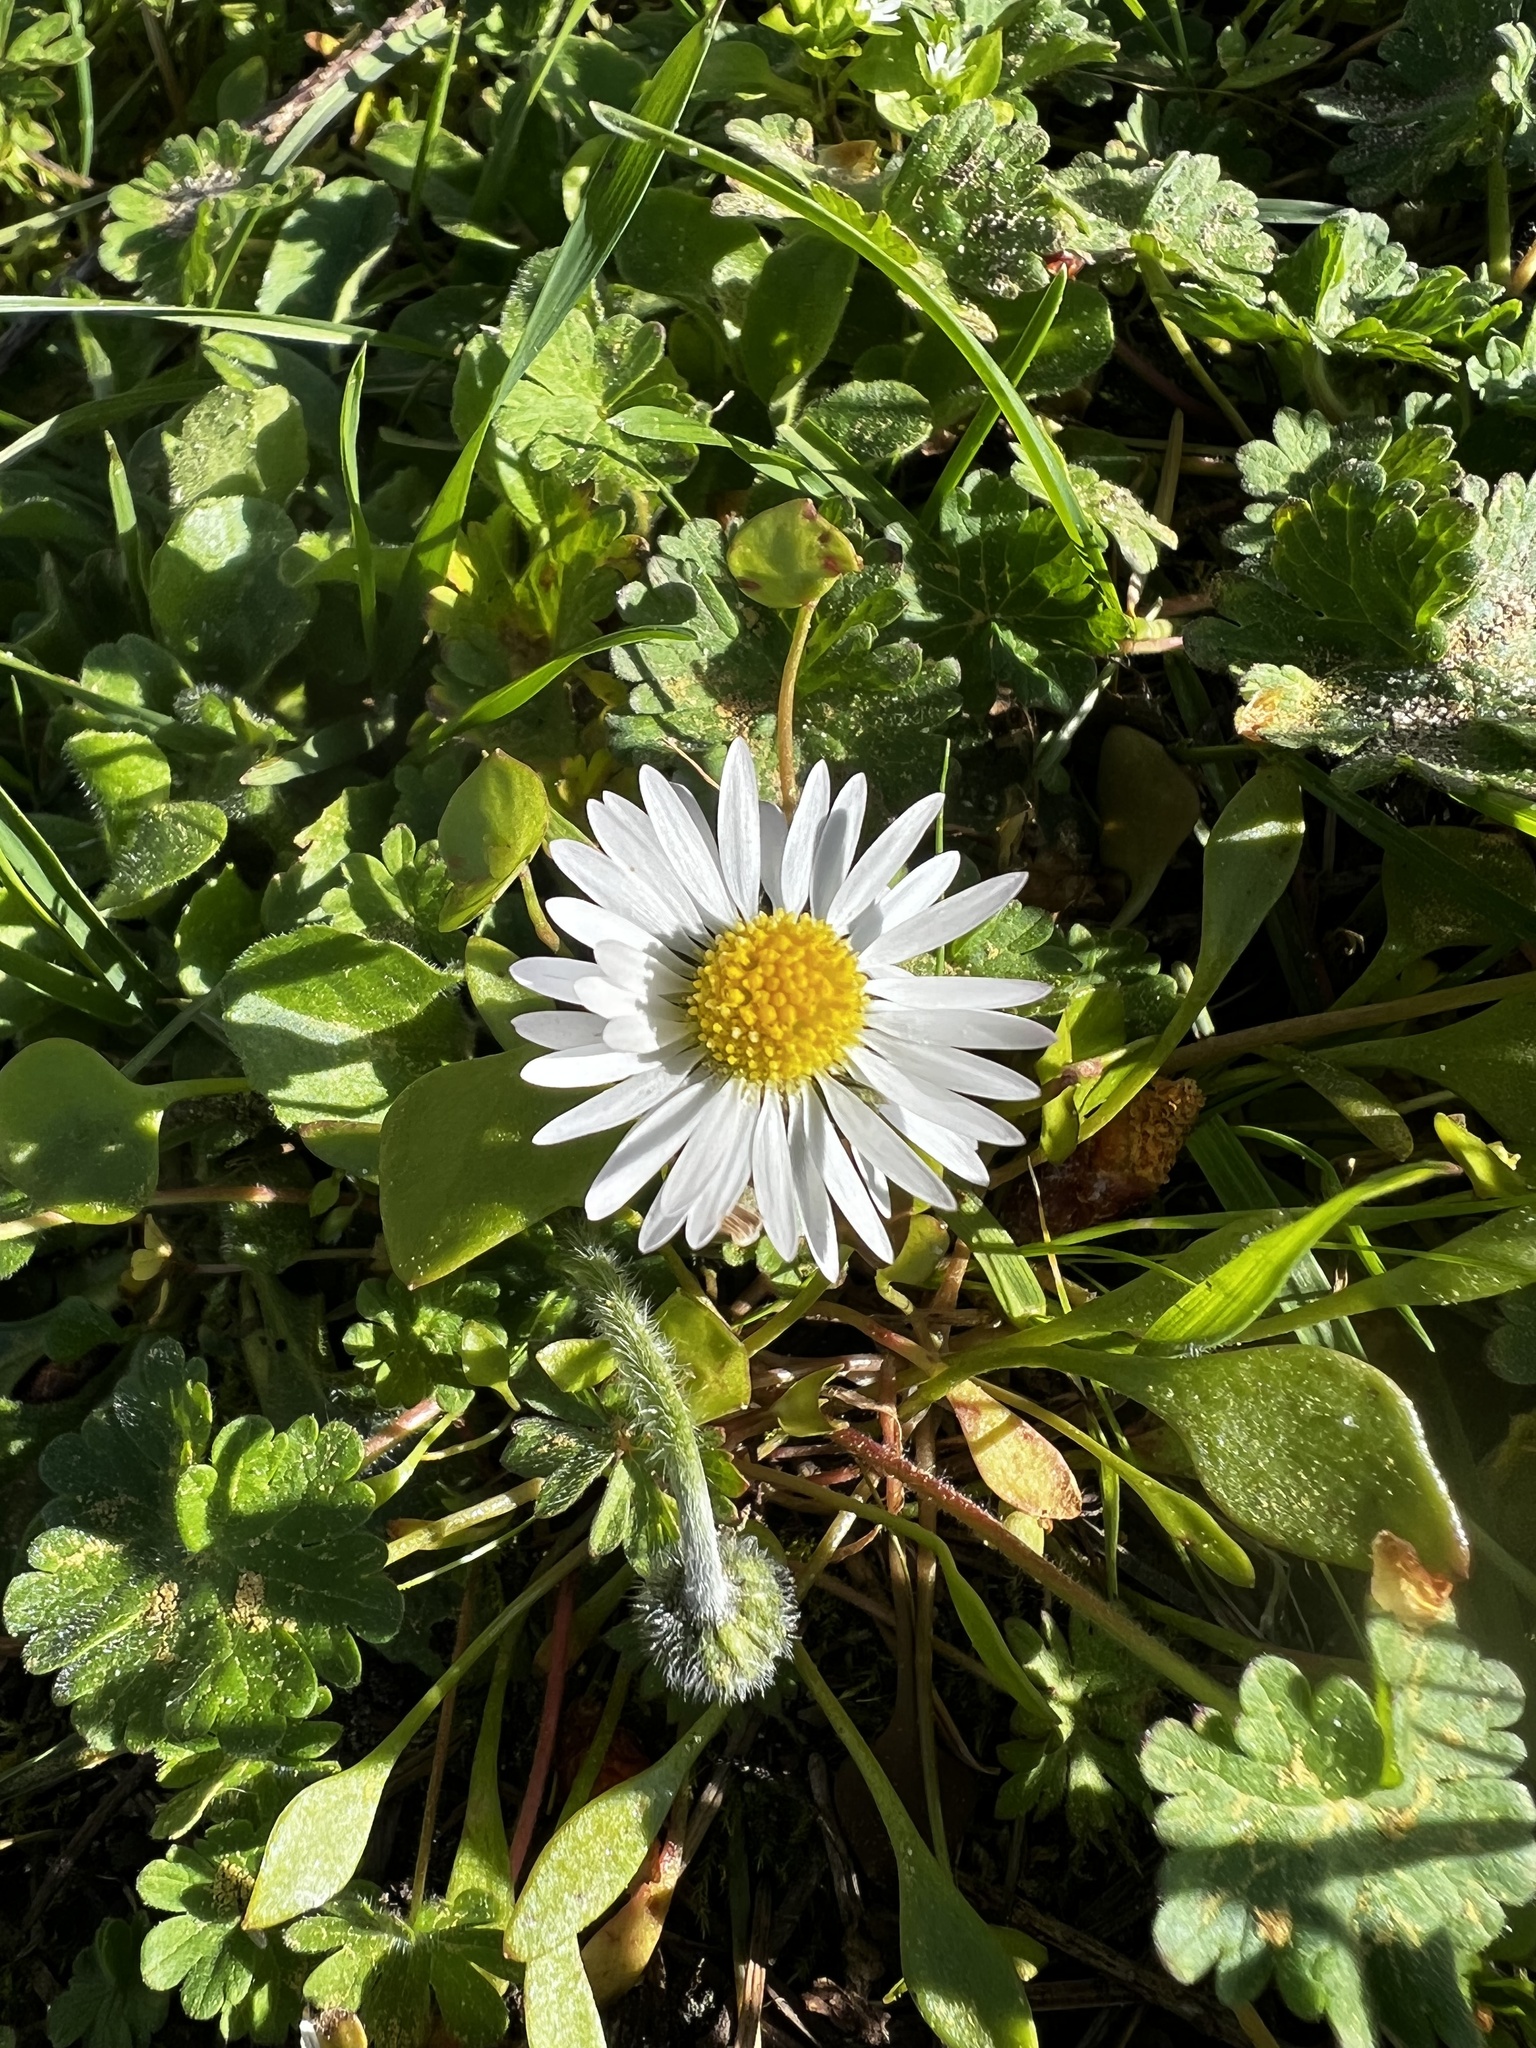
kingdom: Plantae
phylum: Tracheophyta
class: Magnoliopsida
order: Asterales
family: Asteraceae
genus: Bellis
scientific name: Bellis perennis
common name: Lawndaisy
